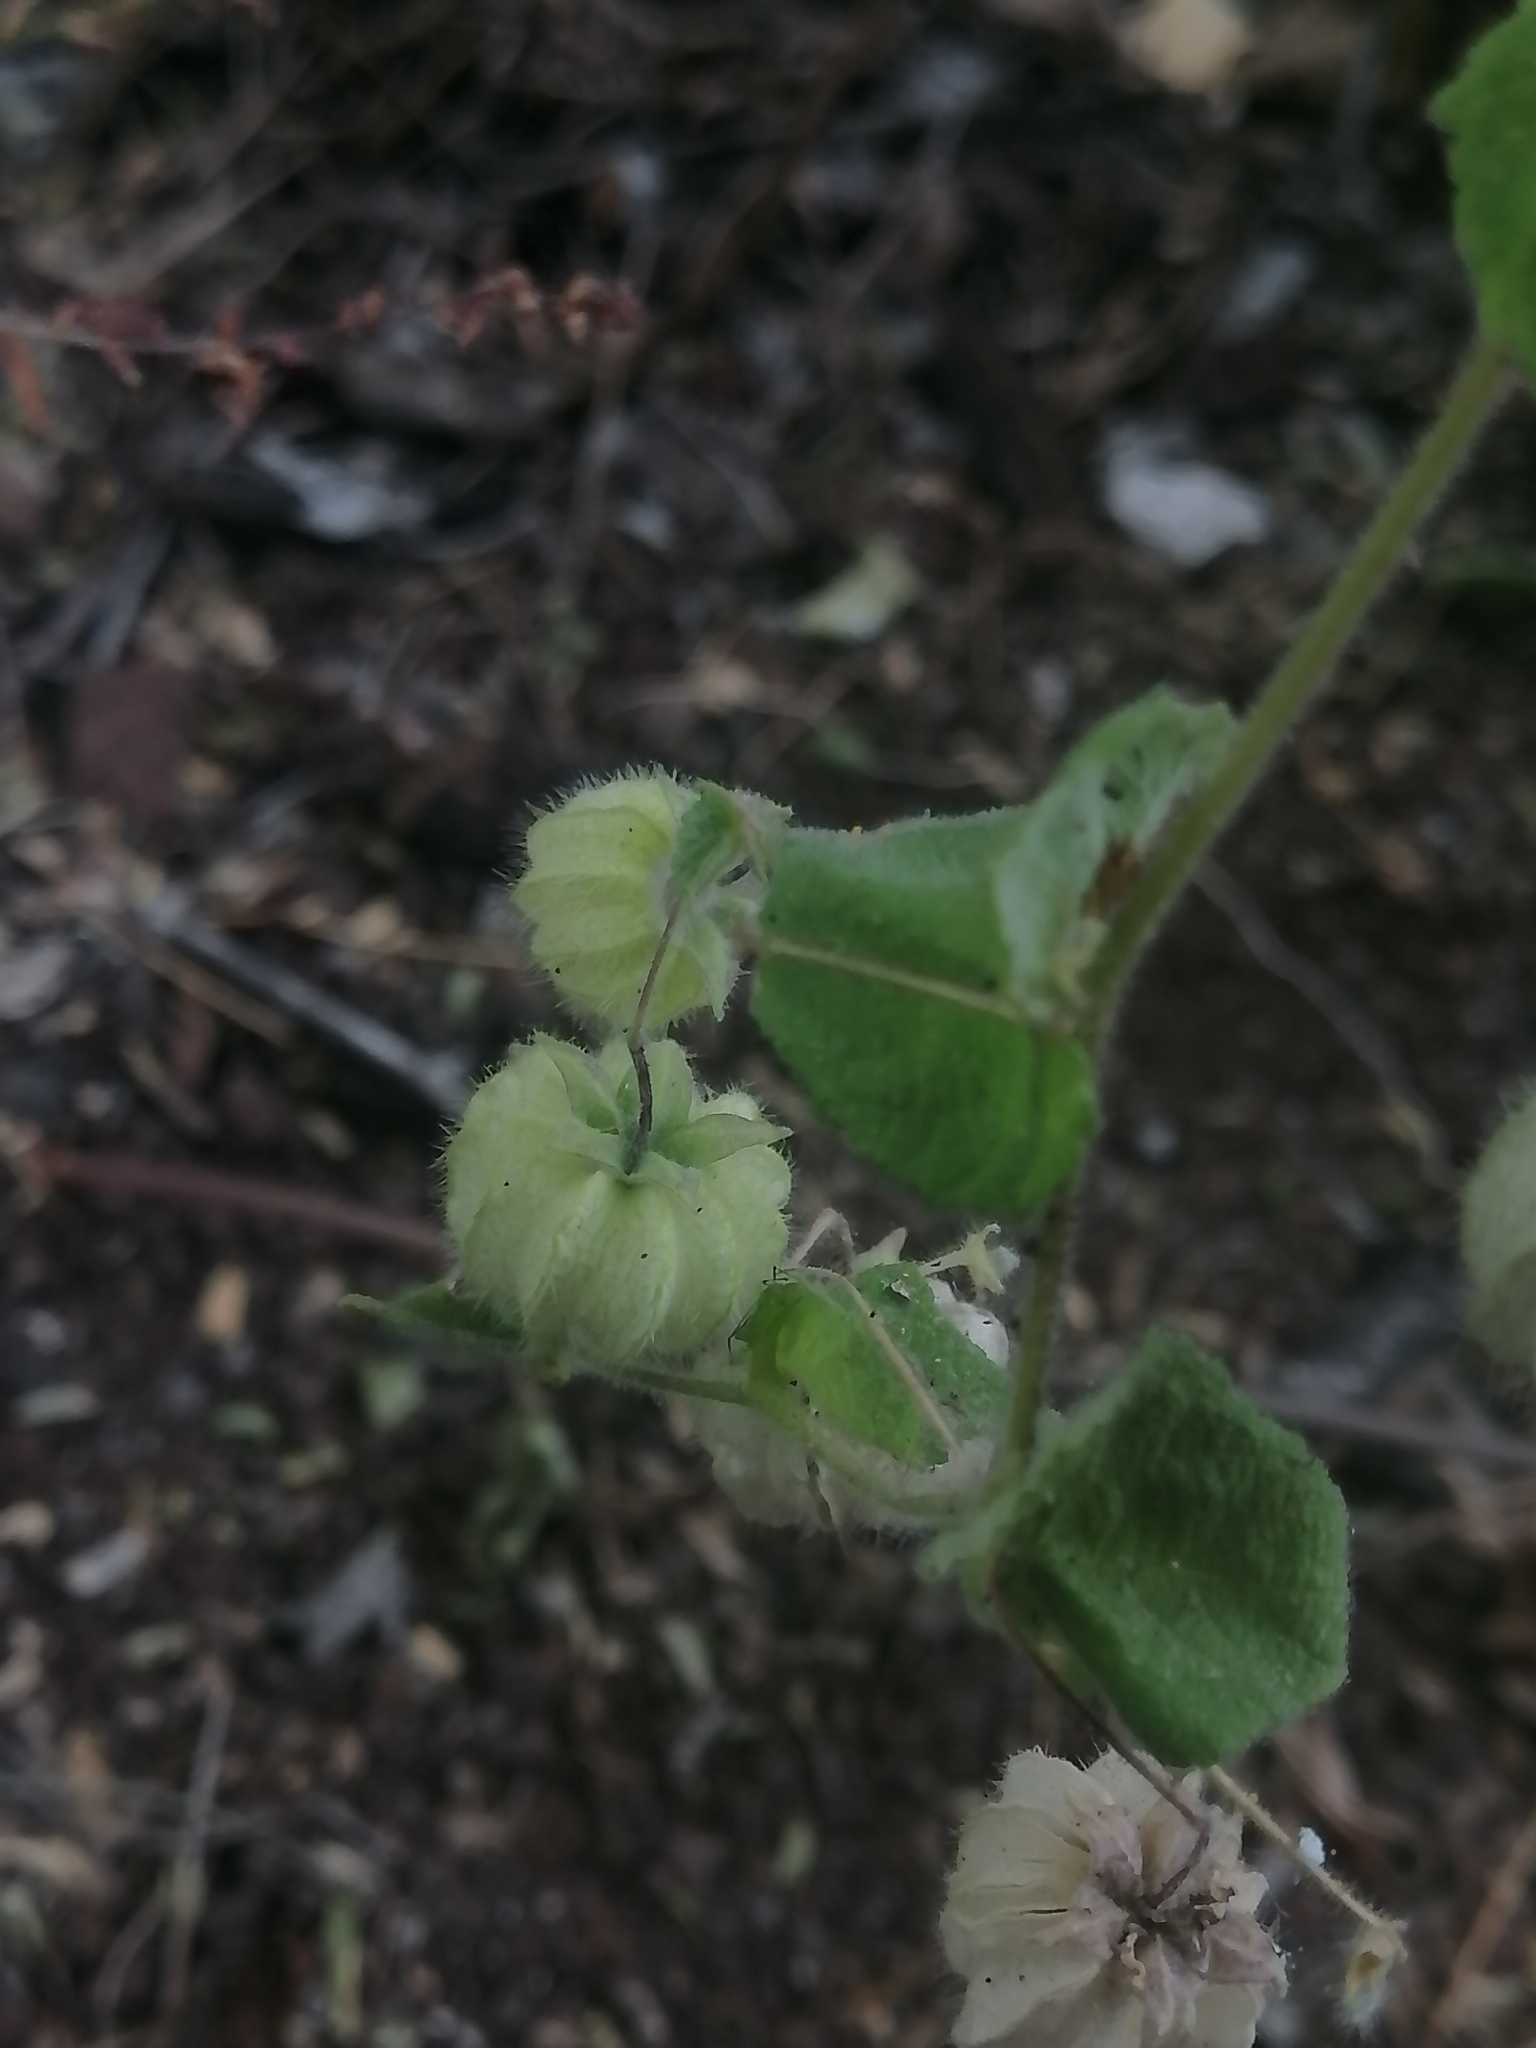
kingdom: Plantae
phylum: Tracheophyta
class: Magnoliopsida
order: Malvales
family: Malvaceae
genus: Herissantia
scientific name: Herissantia crispa
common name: Bladdermallow
